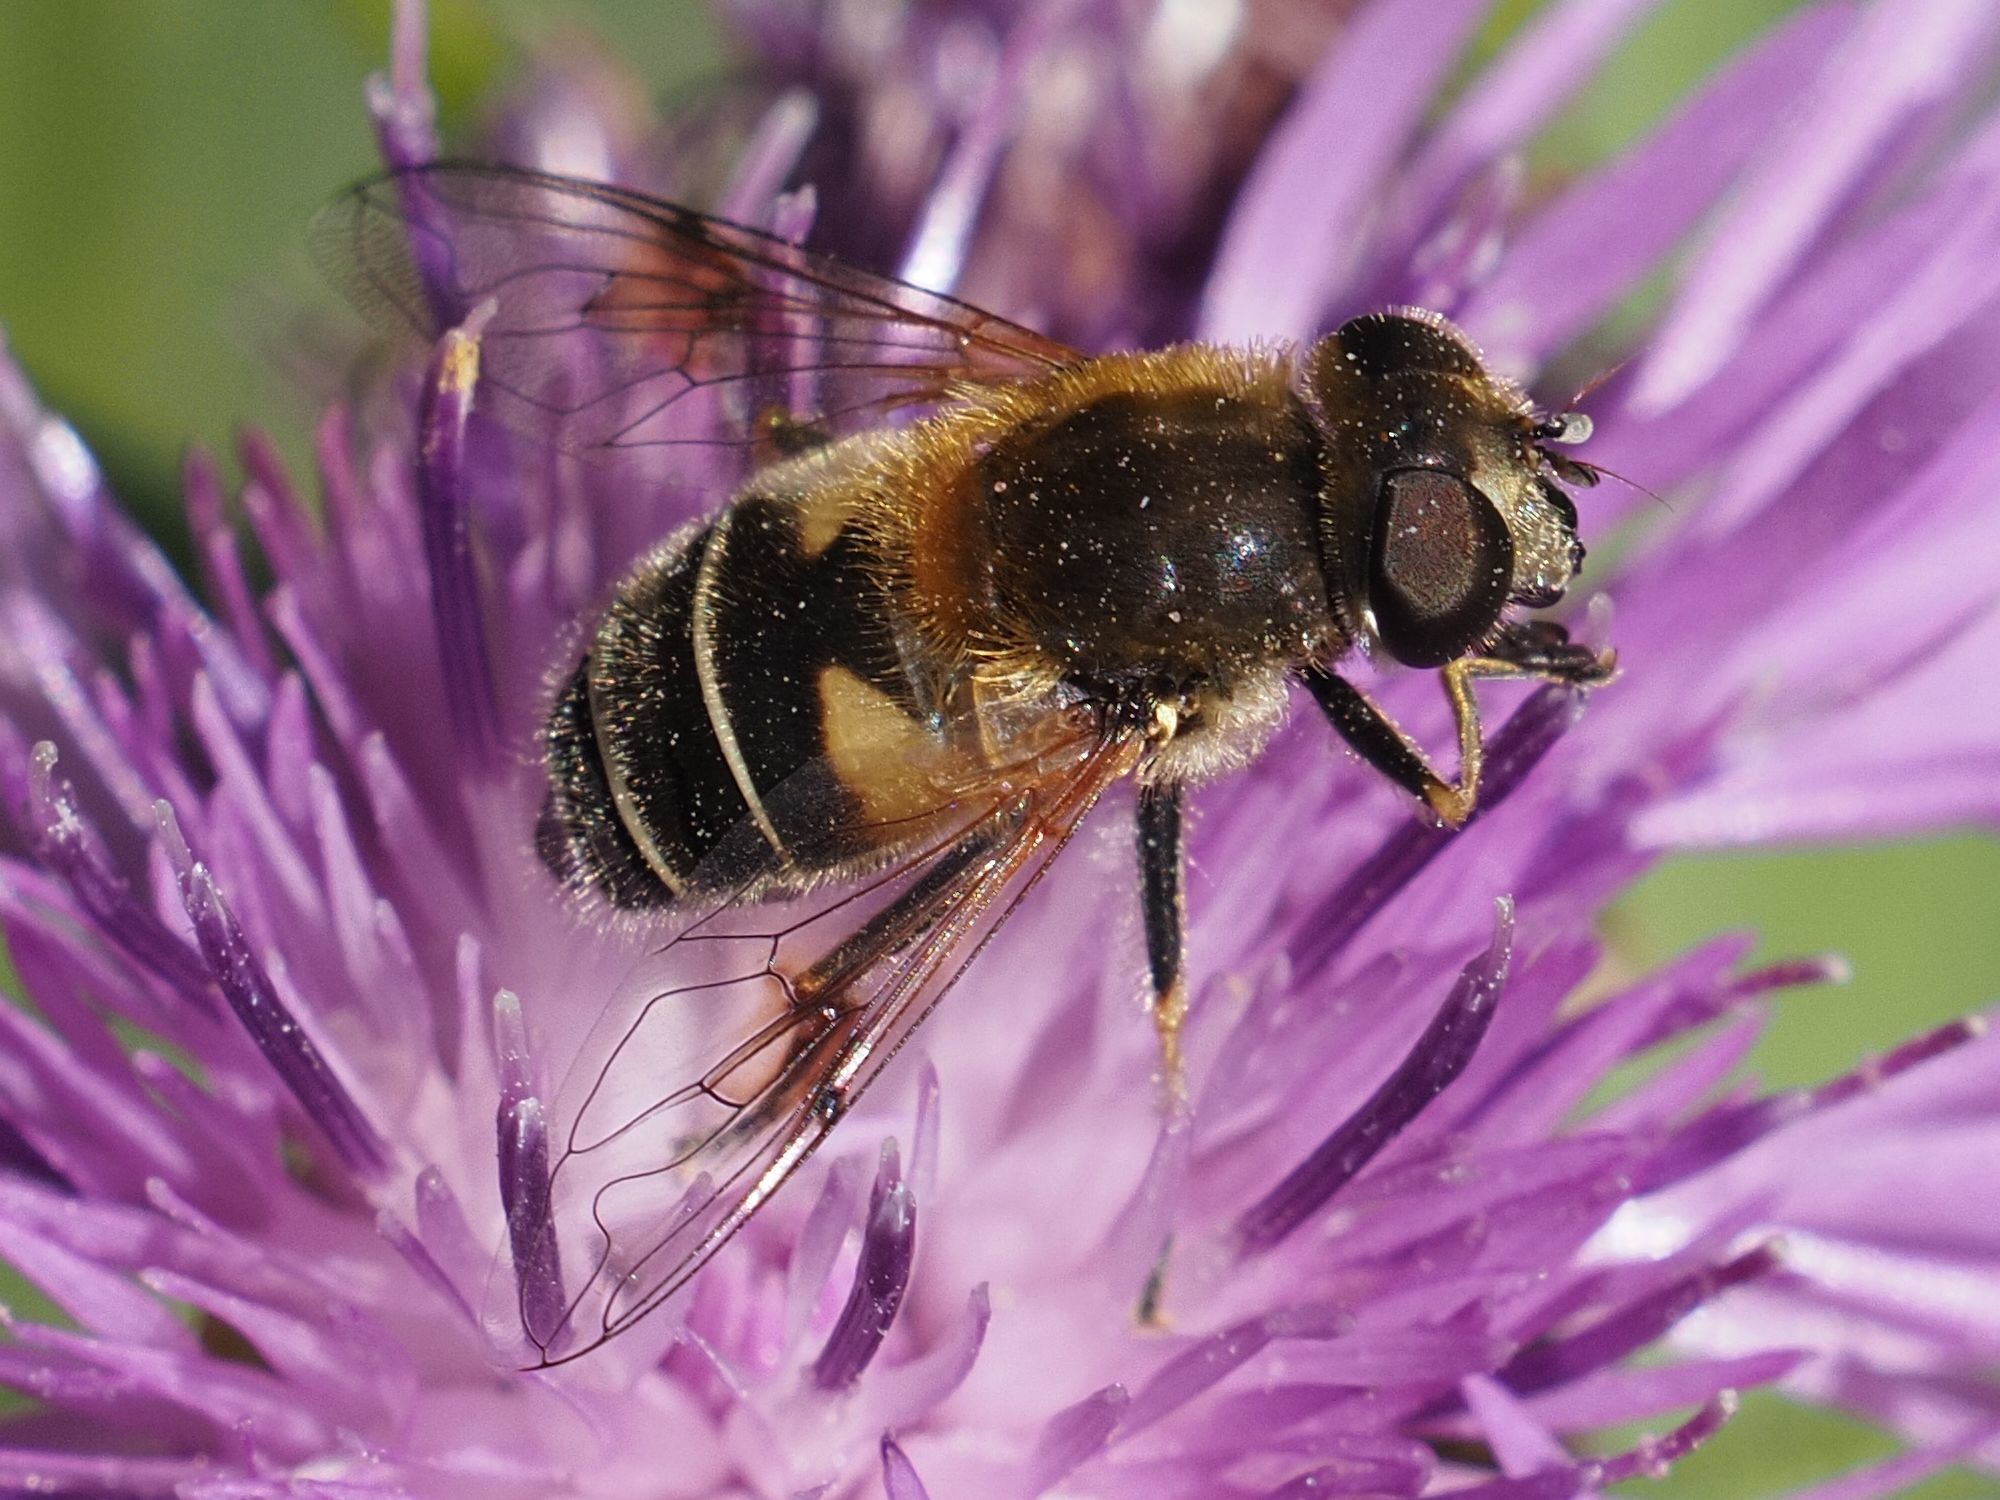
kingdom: Animalia
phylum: Arthropoda
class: Insecta
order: Diptera
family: Syrphidae
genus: Eristalis
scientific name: Eristalis jugorum
